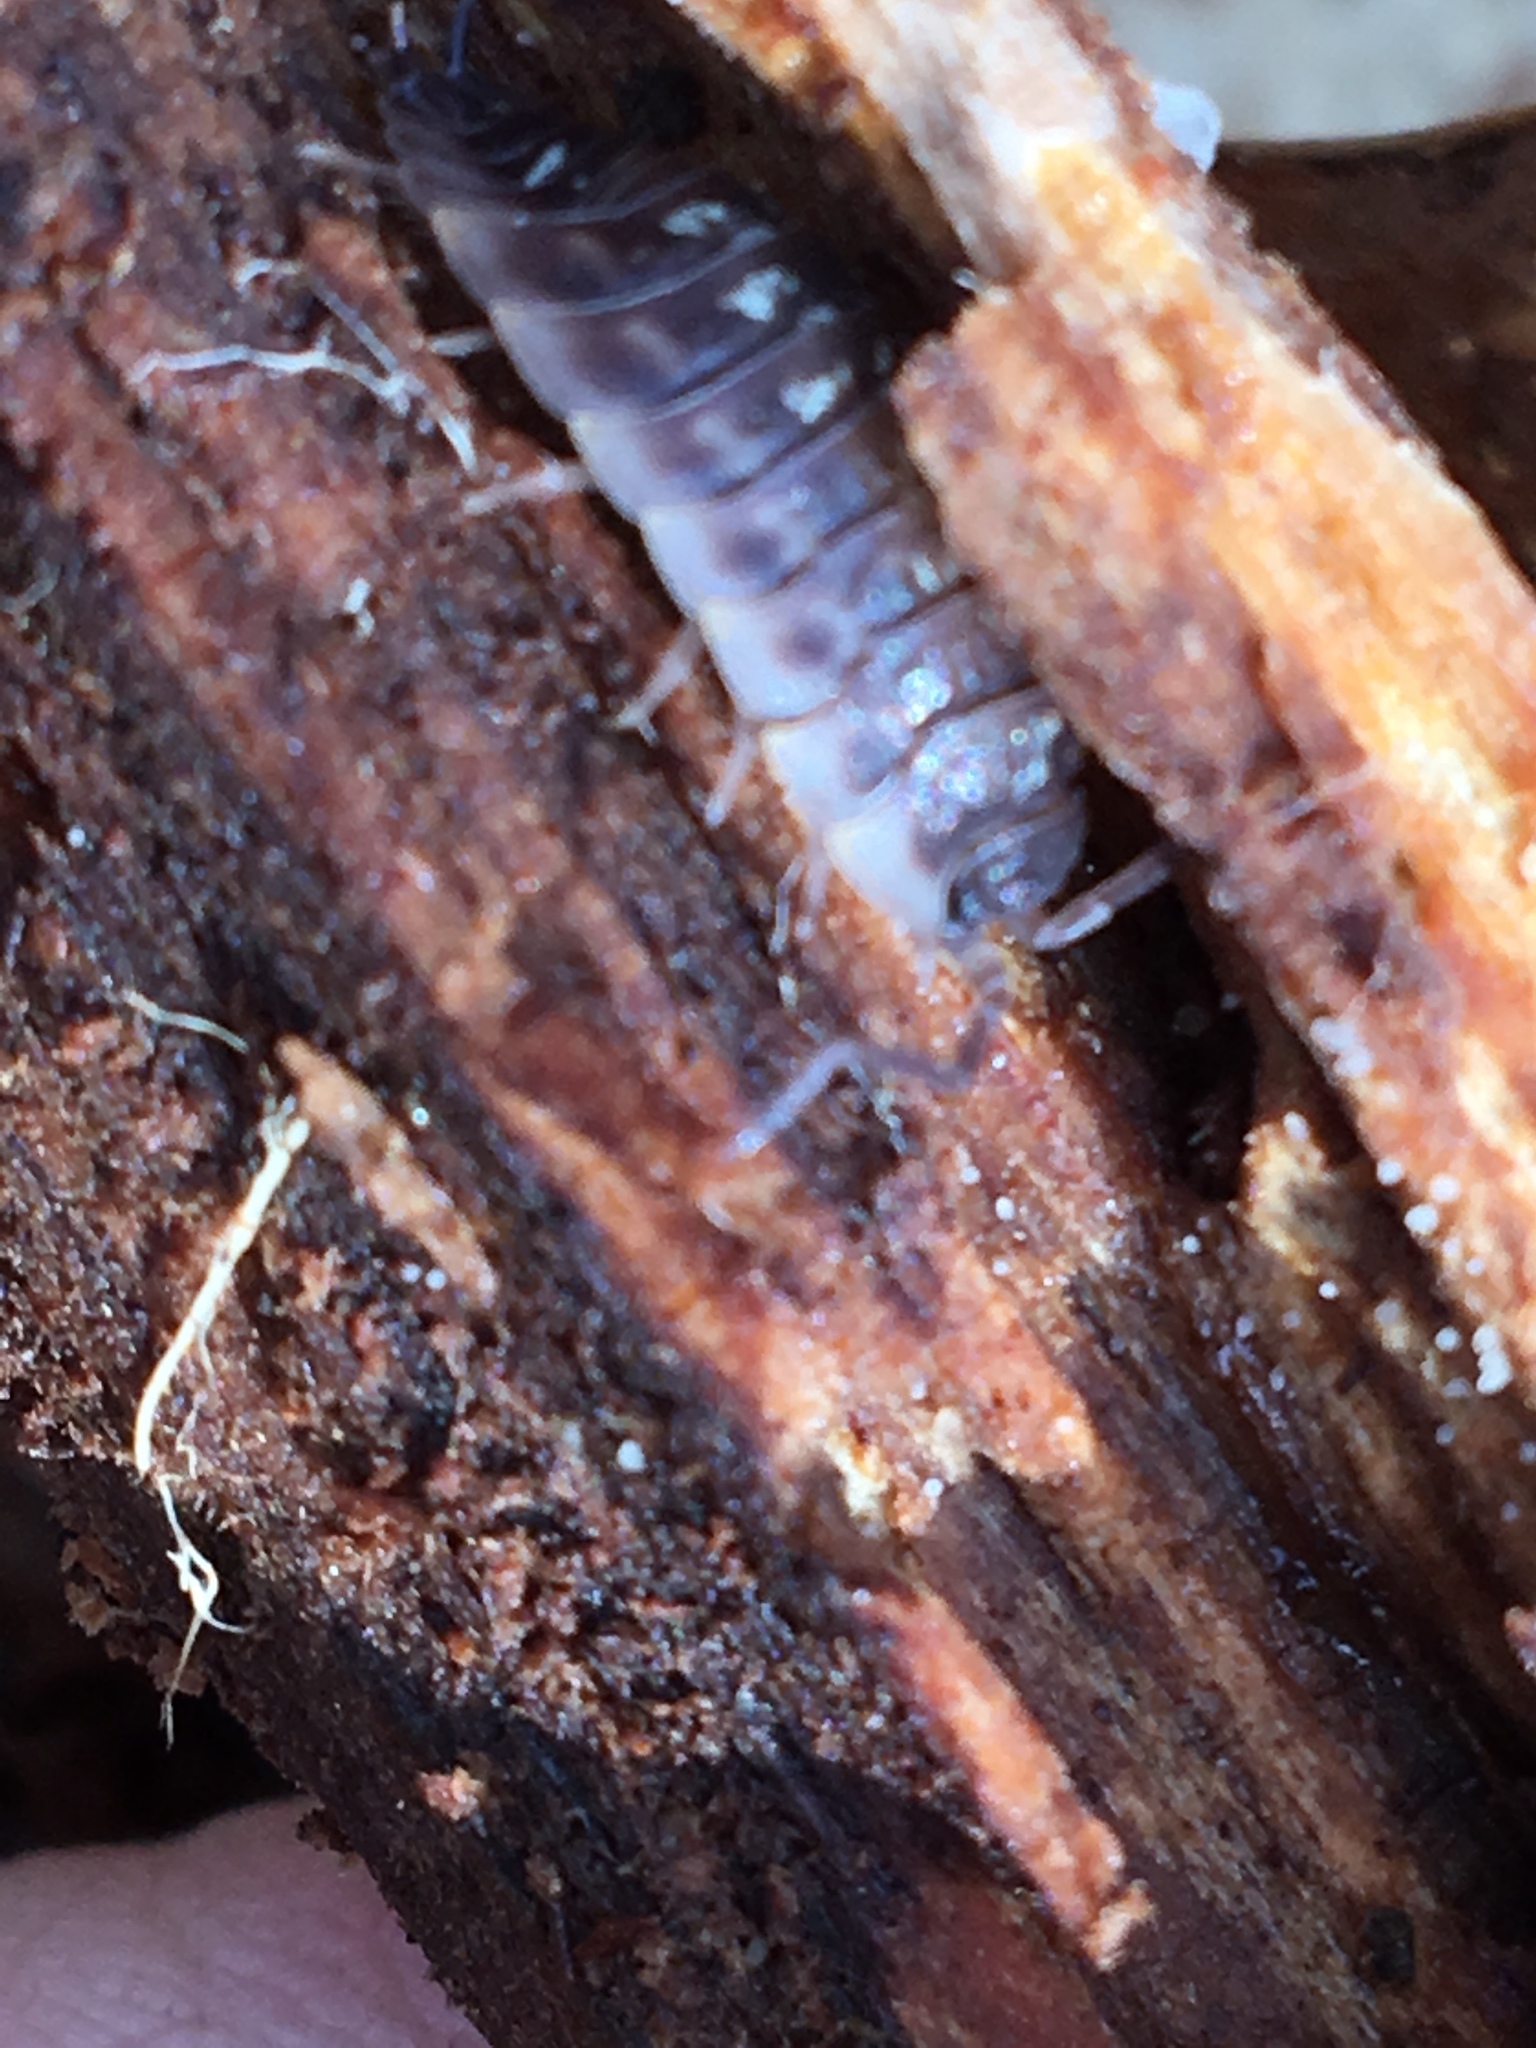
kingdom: Animalia
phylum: Arthropoda
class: Malacostraca
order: Isopoda
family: Oniscidae
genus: Oniscus
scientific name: Oniscus asellus
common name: Common shiny woodlouse
